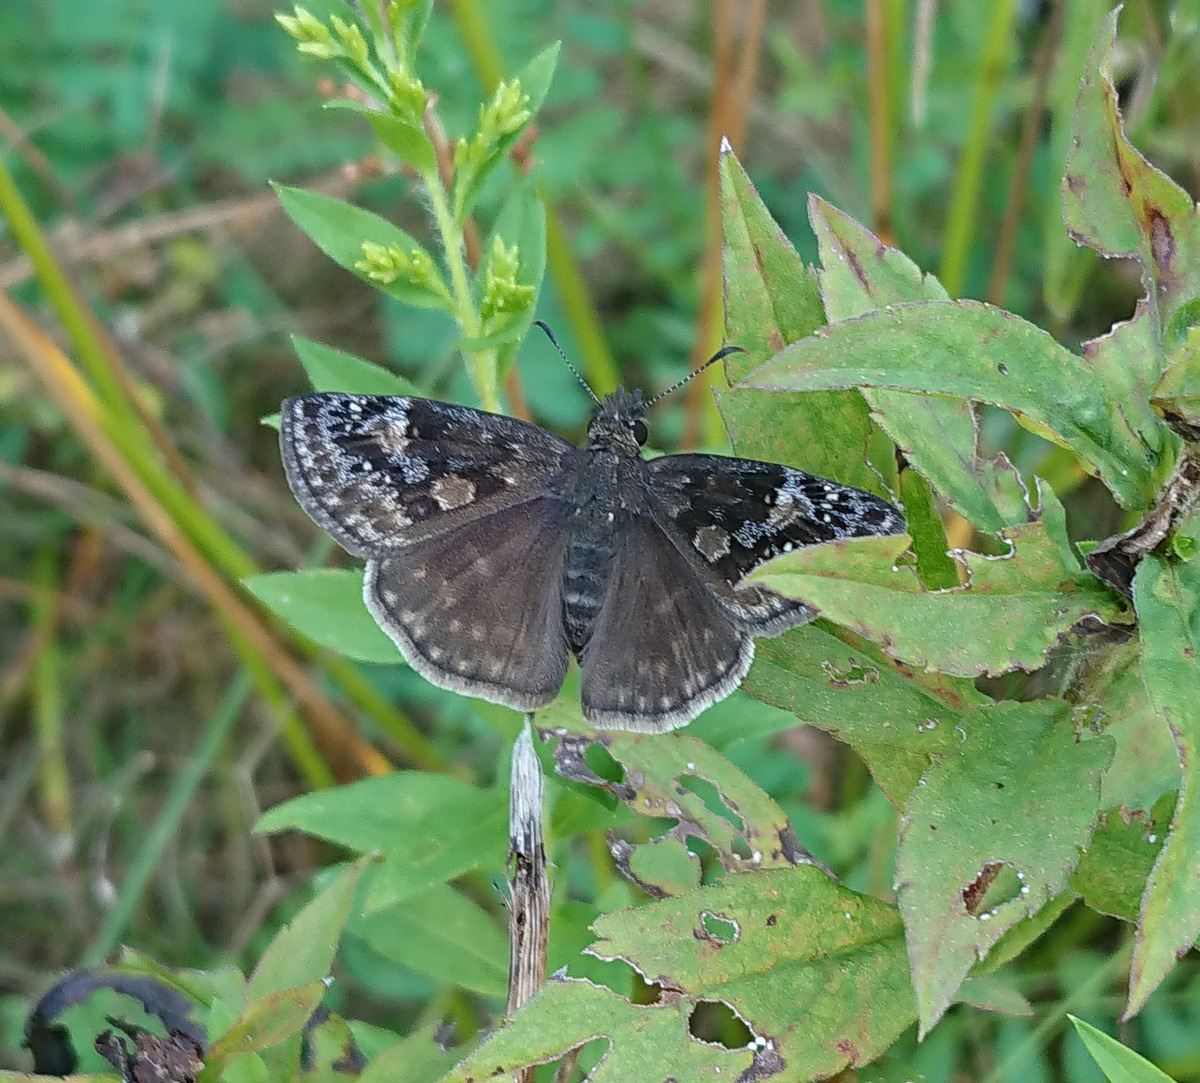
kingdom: Animalia
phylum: Arthropoda
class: Insecta
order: Lepidoptera
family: Hesperiidae
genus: Erynnis
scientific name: Erynnis baptisiae
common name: Wild indigo duskywing
